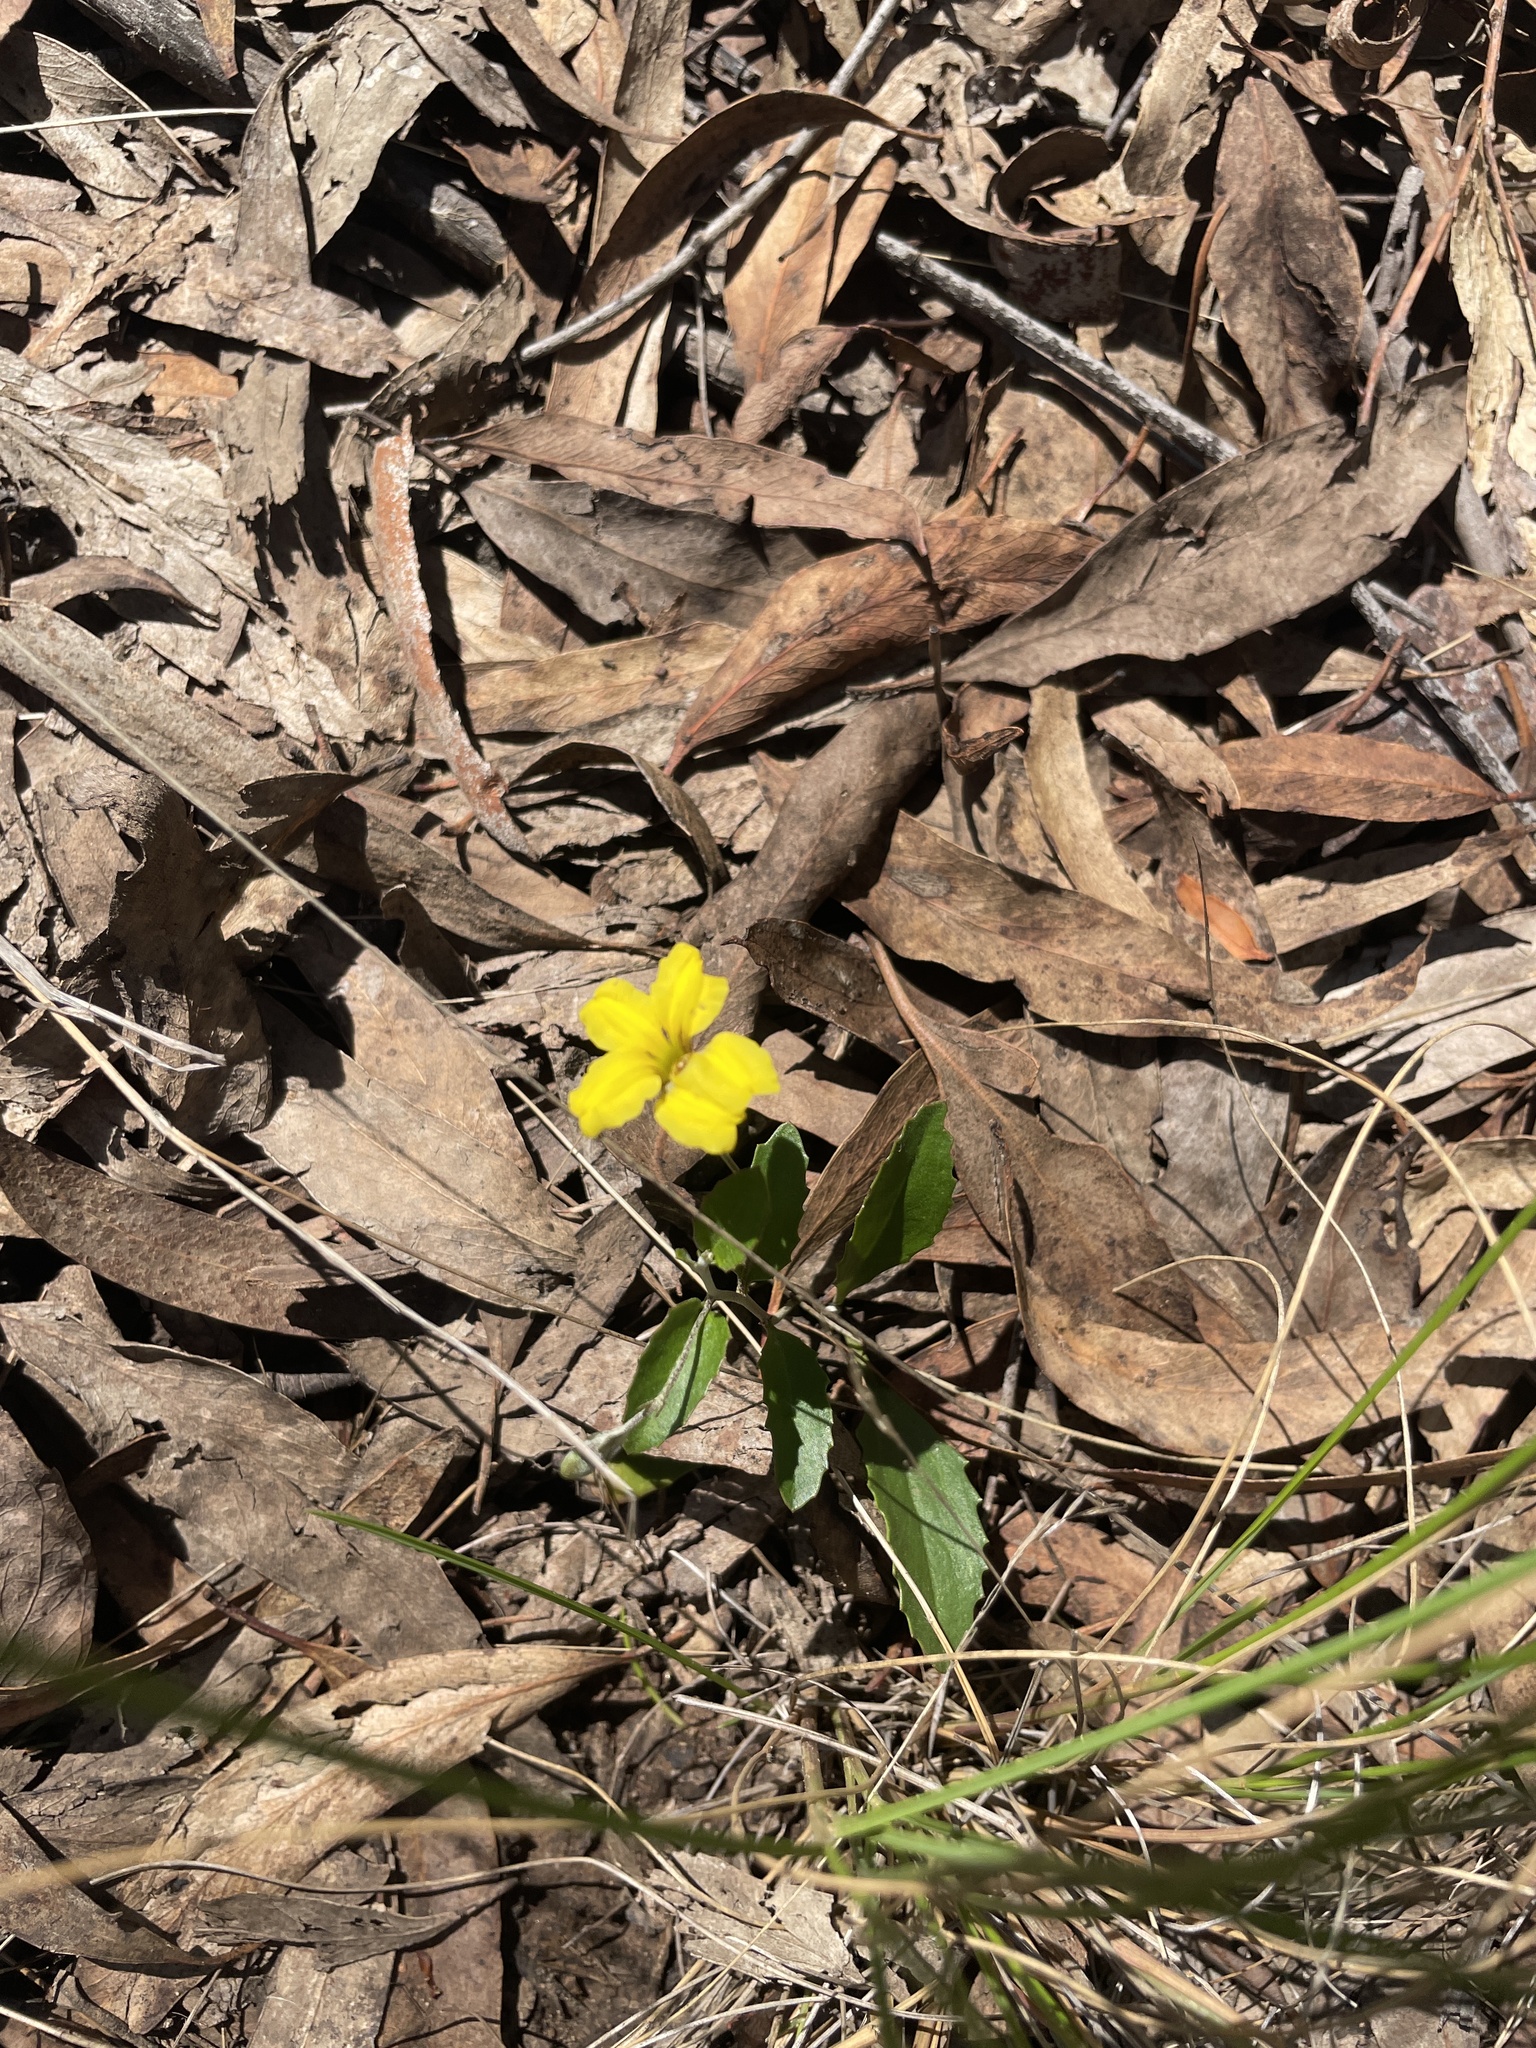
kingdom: Plantae
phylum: Tracheophyta
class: Magnoliopsida
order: Asterales
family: Goodeniaceae
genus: Goodenia
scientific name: Goodenia hederacea
